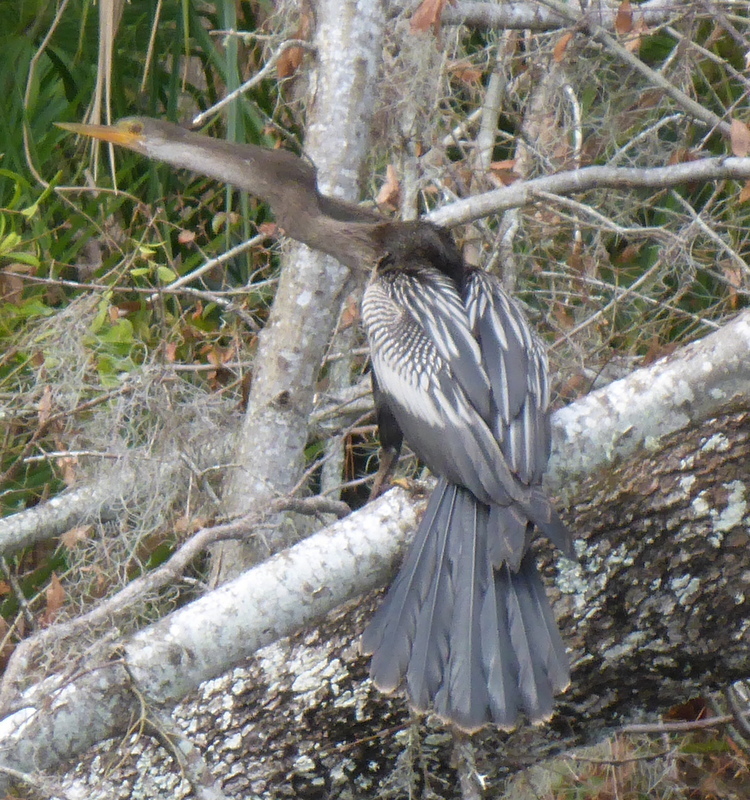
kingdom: Animalia
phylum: Chordata
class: Aves
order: Suliformes
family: Anhingidae
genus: Anhinga
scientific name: Anhinga anhinga
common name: Anhinga
